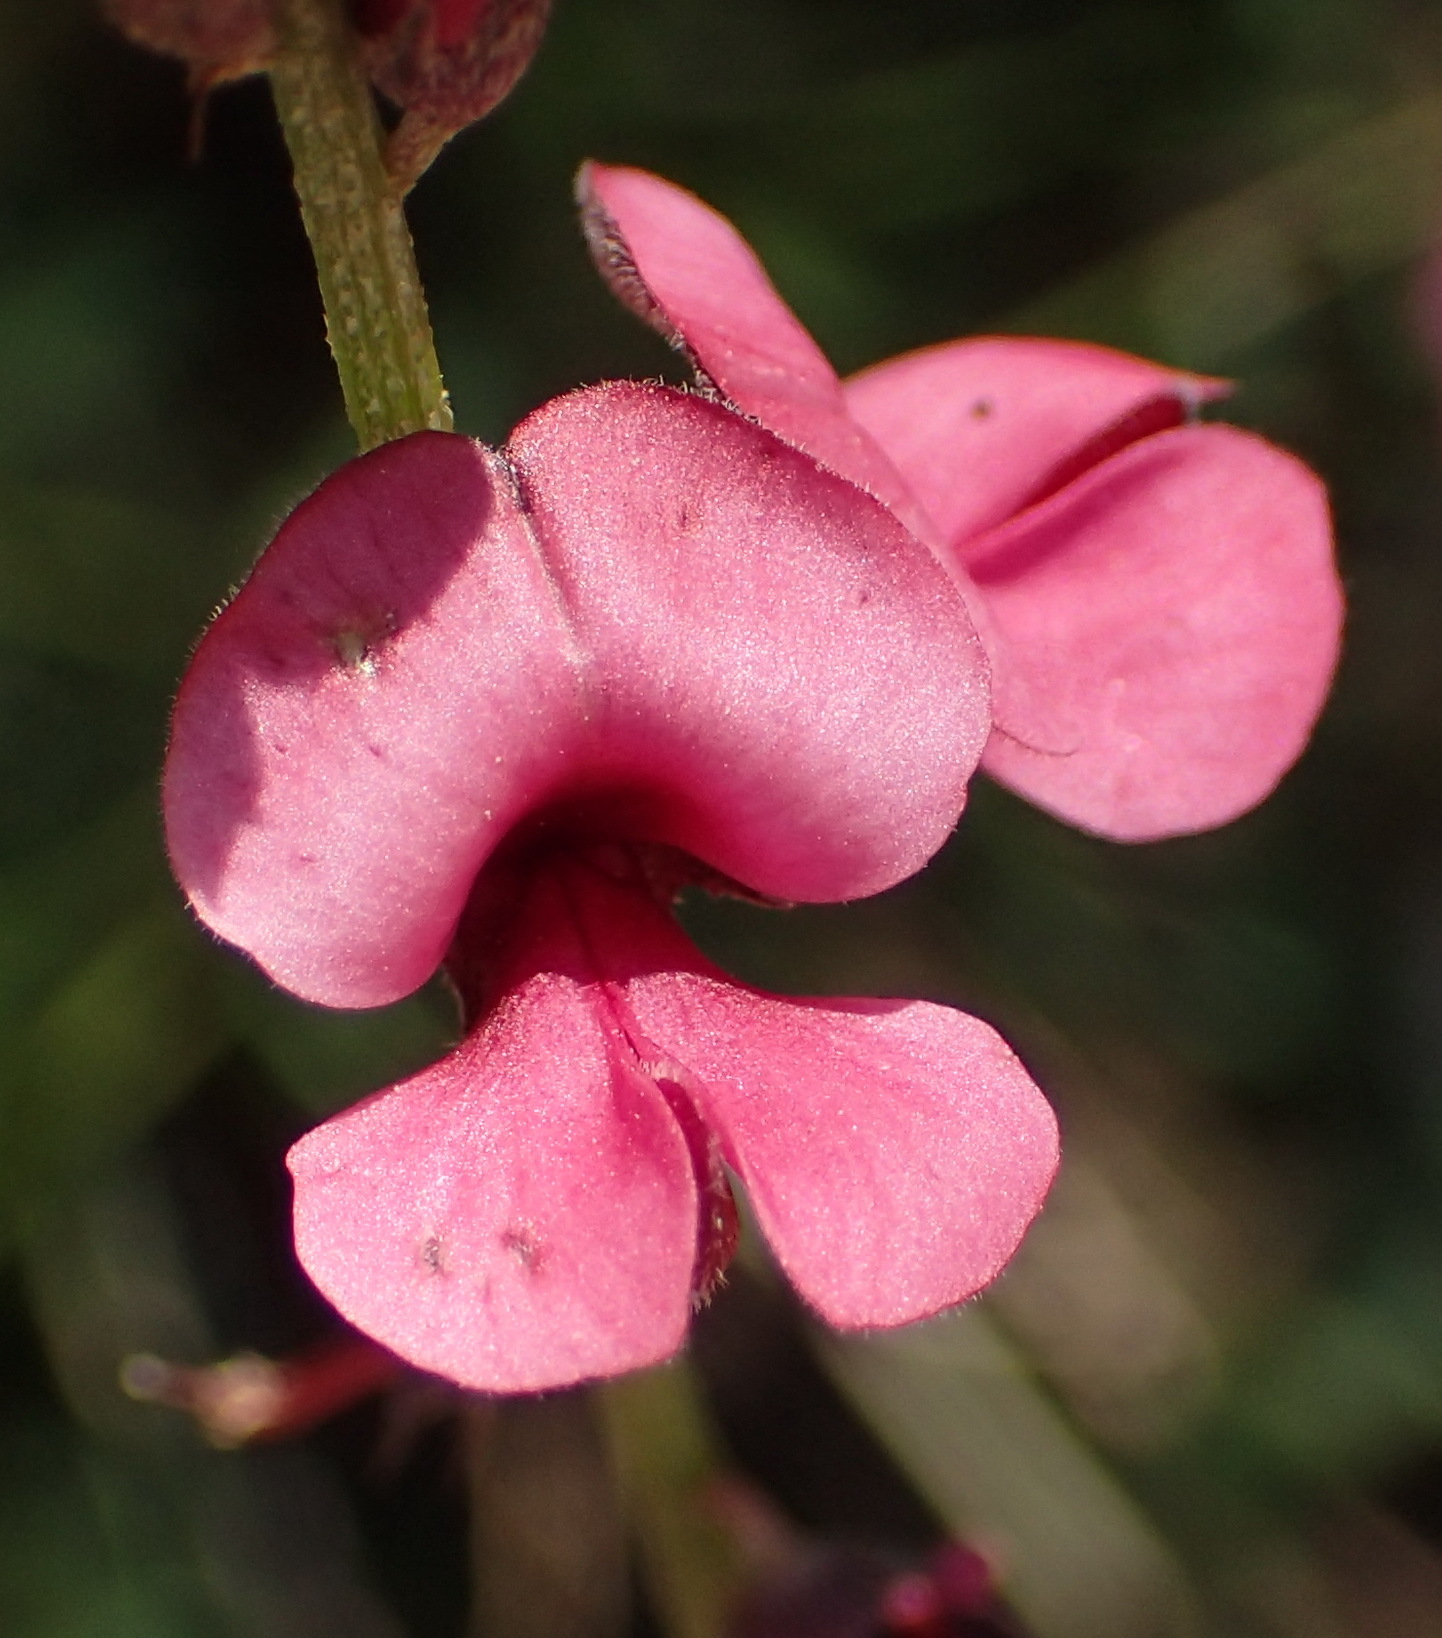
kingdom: Plantae
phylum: Tracheophyta
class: Magnoliopsida
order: Fabales
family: Fabaceae
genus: Indigofera
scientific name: Indigofera heterophylla
